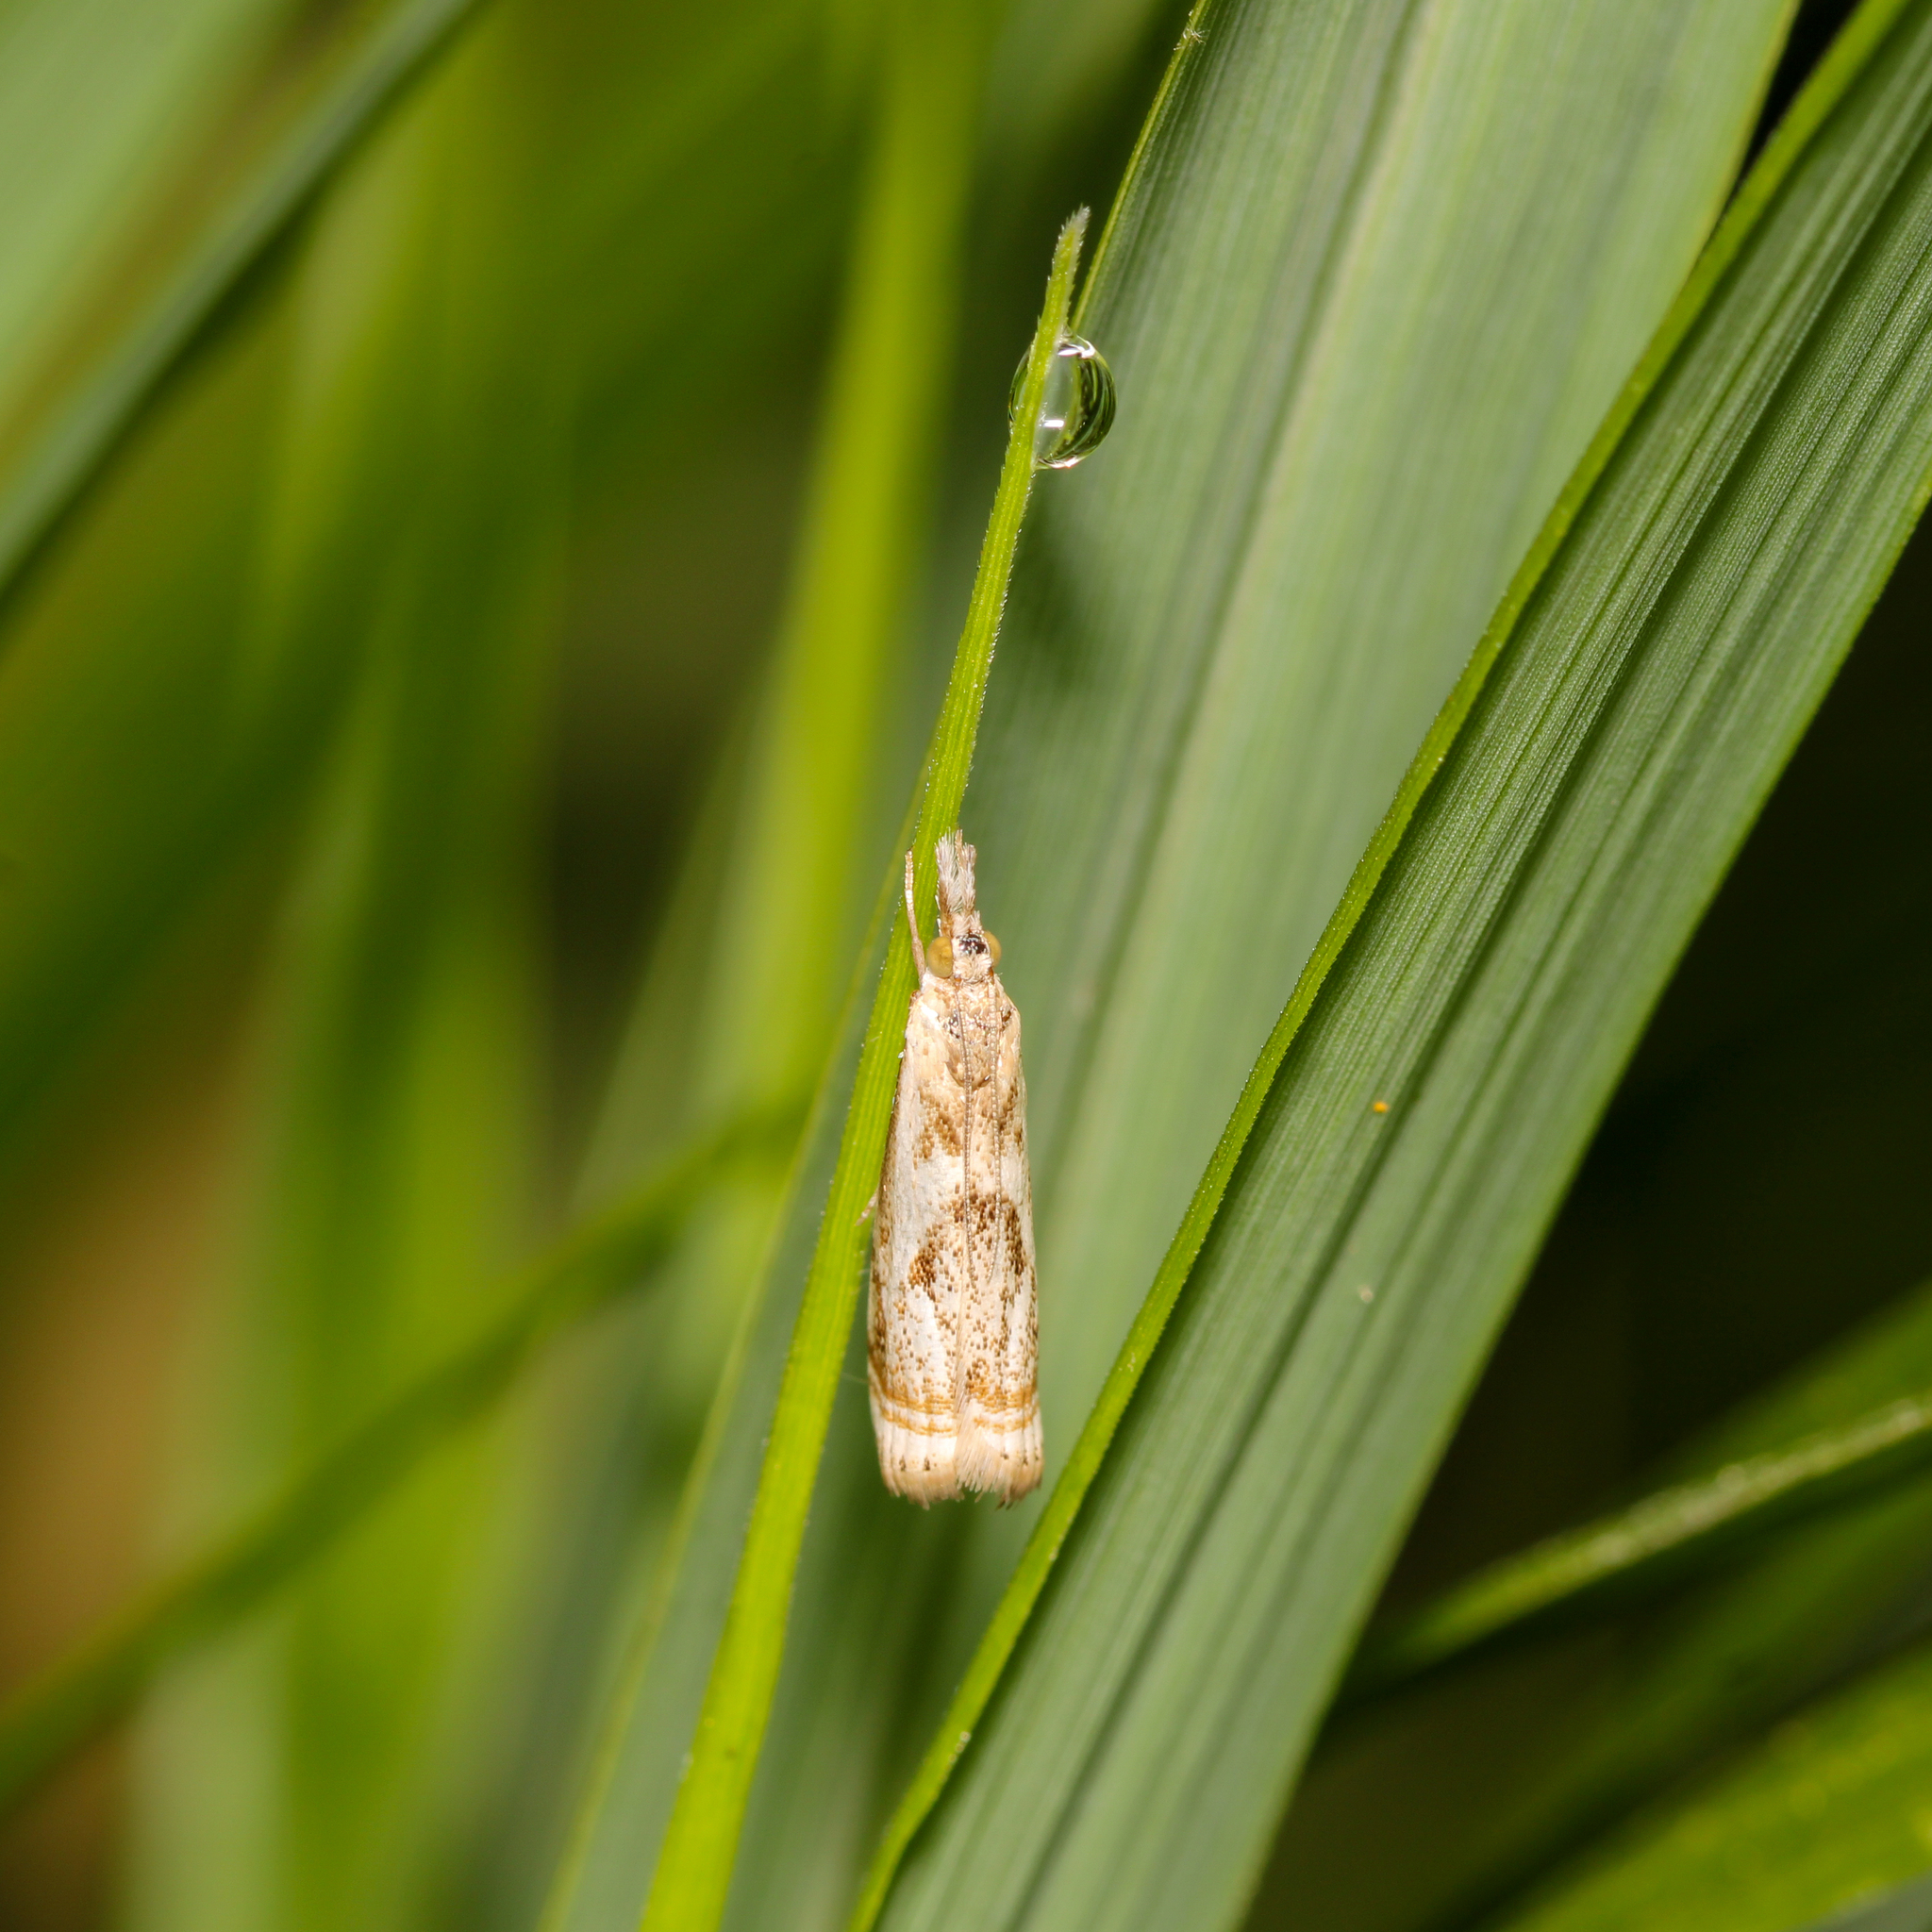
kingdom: Animalia
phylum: Arthropoda
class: Insecta
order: Lepidoptera
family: Crambidae
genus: Microcrambus
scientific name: Microcrambus elegans
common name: Elegant grass-veneer
